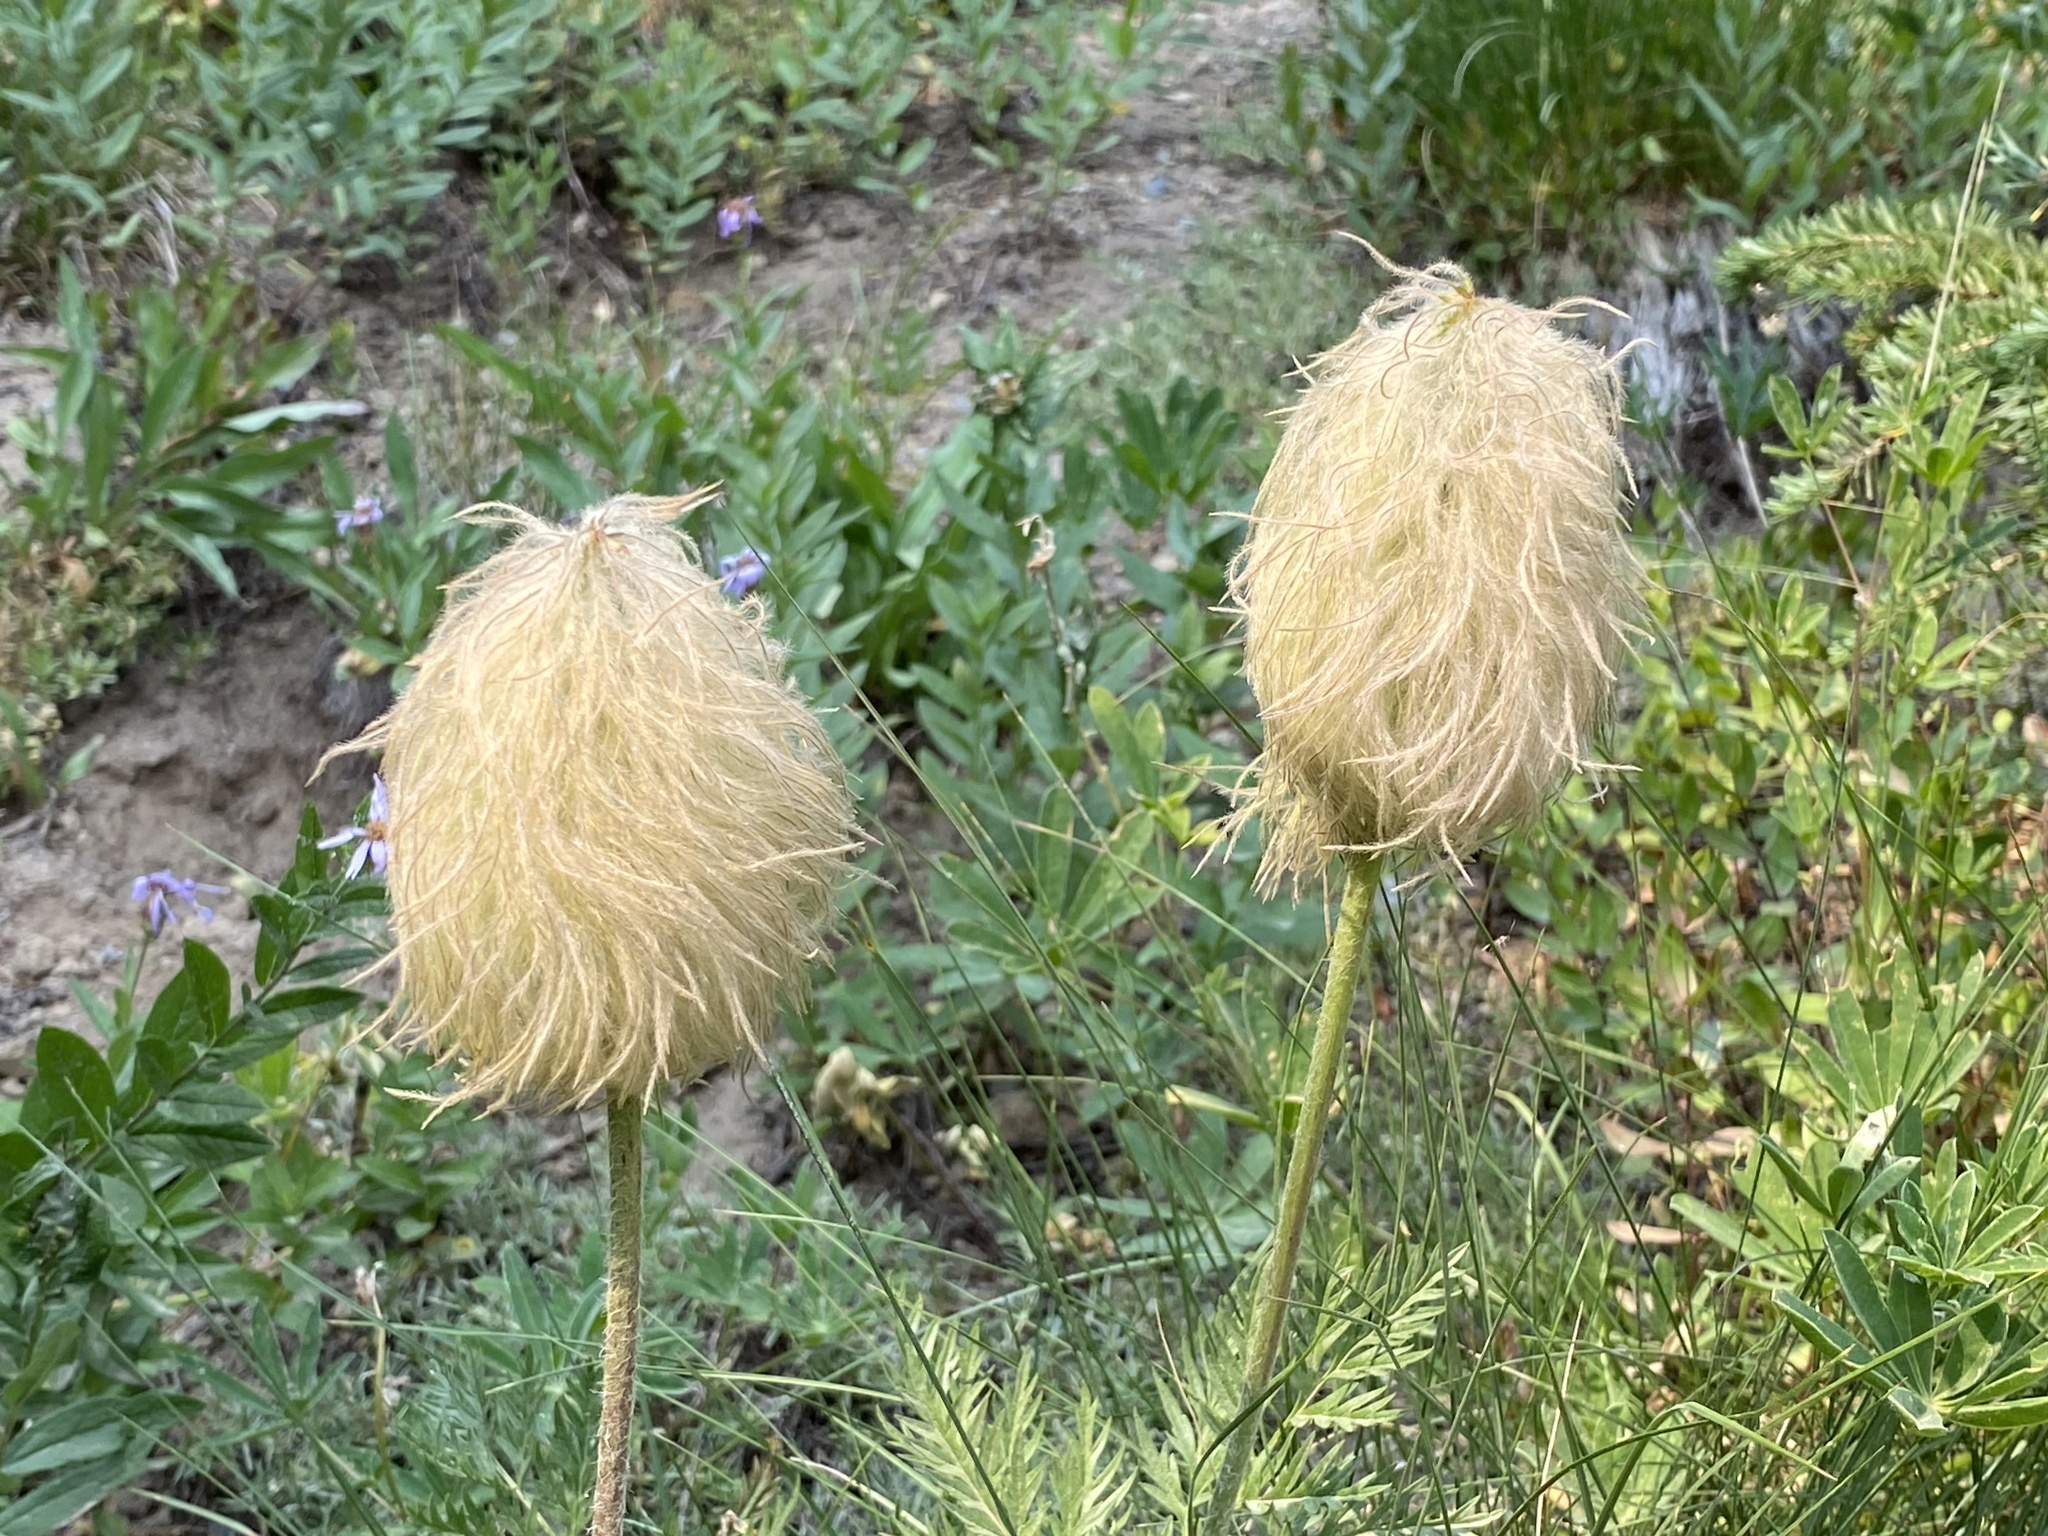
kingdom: Plantae
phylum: Tracheophyta
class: Magnoliopsida
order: Ranunculales
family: Ranunculaceae
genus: Pulsatilla
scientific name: Pulsatilla occidentalis
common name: Mountain pasqueflower
